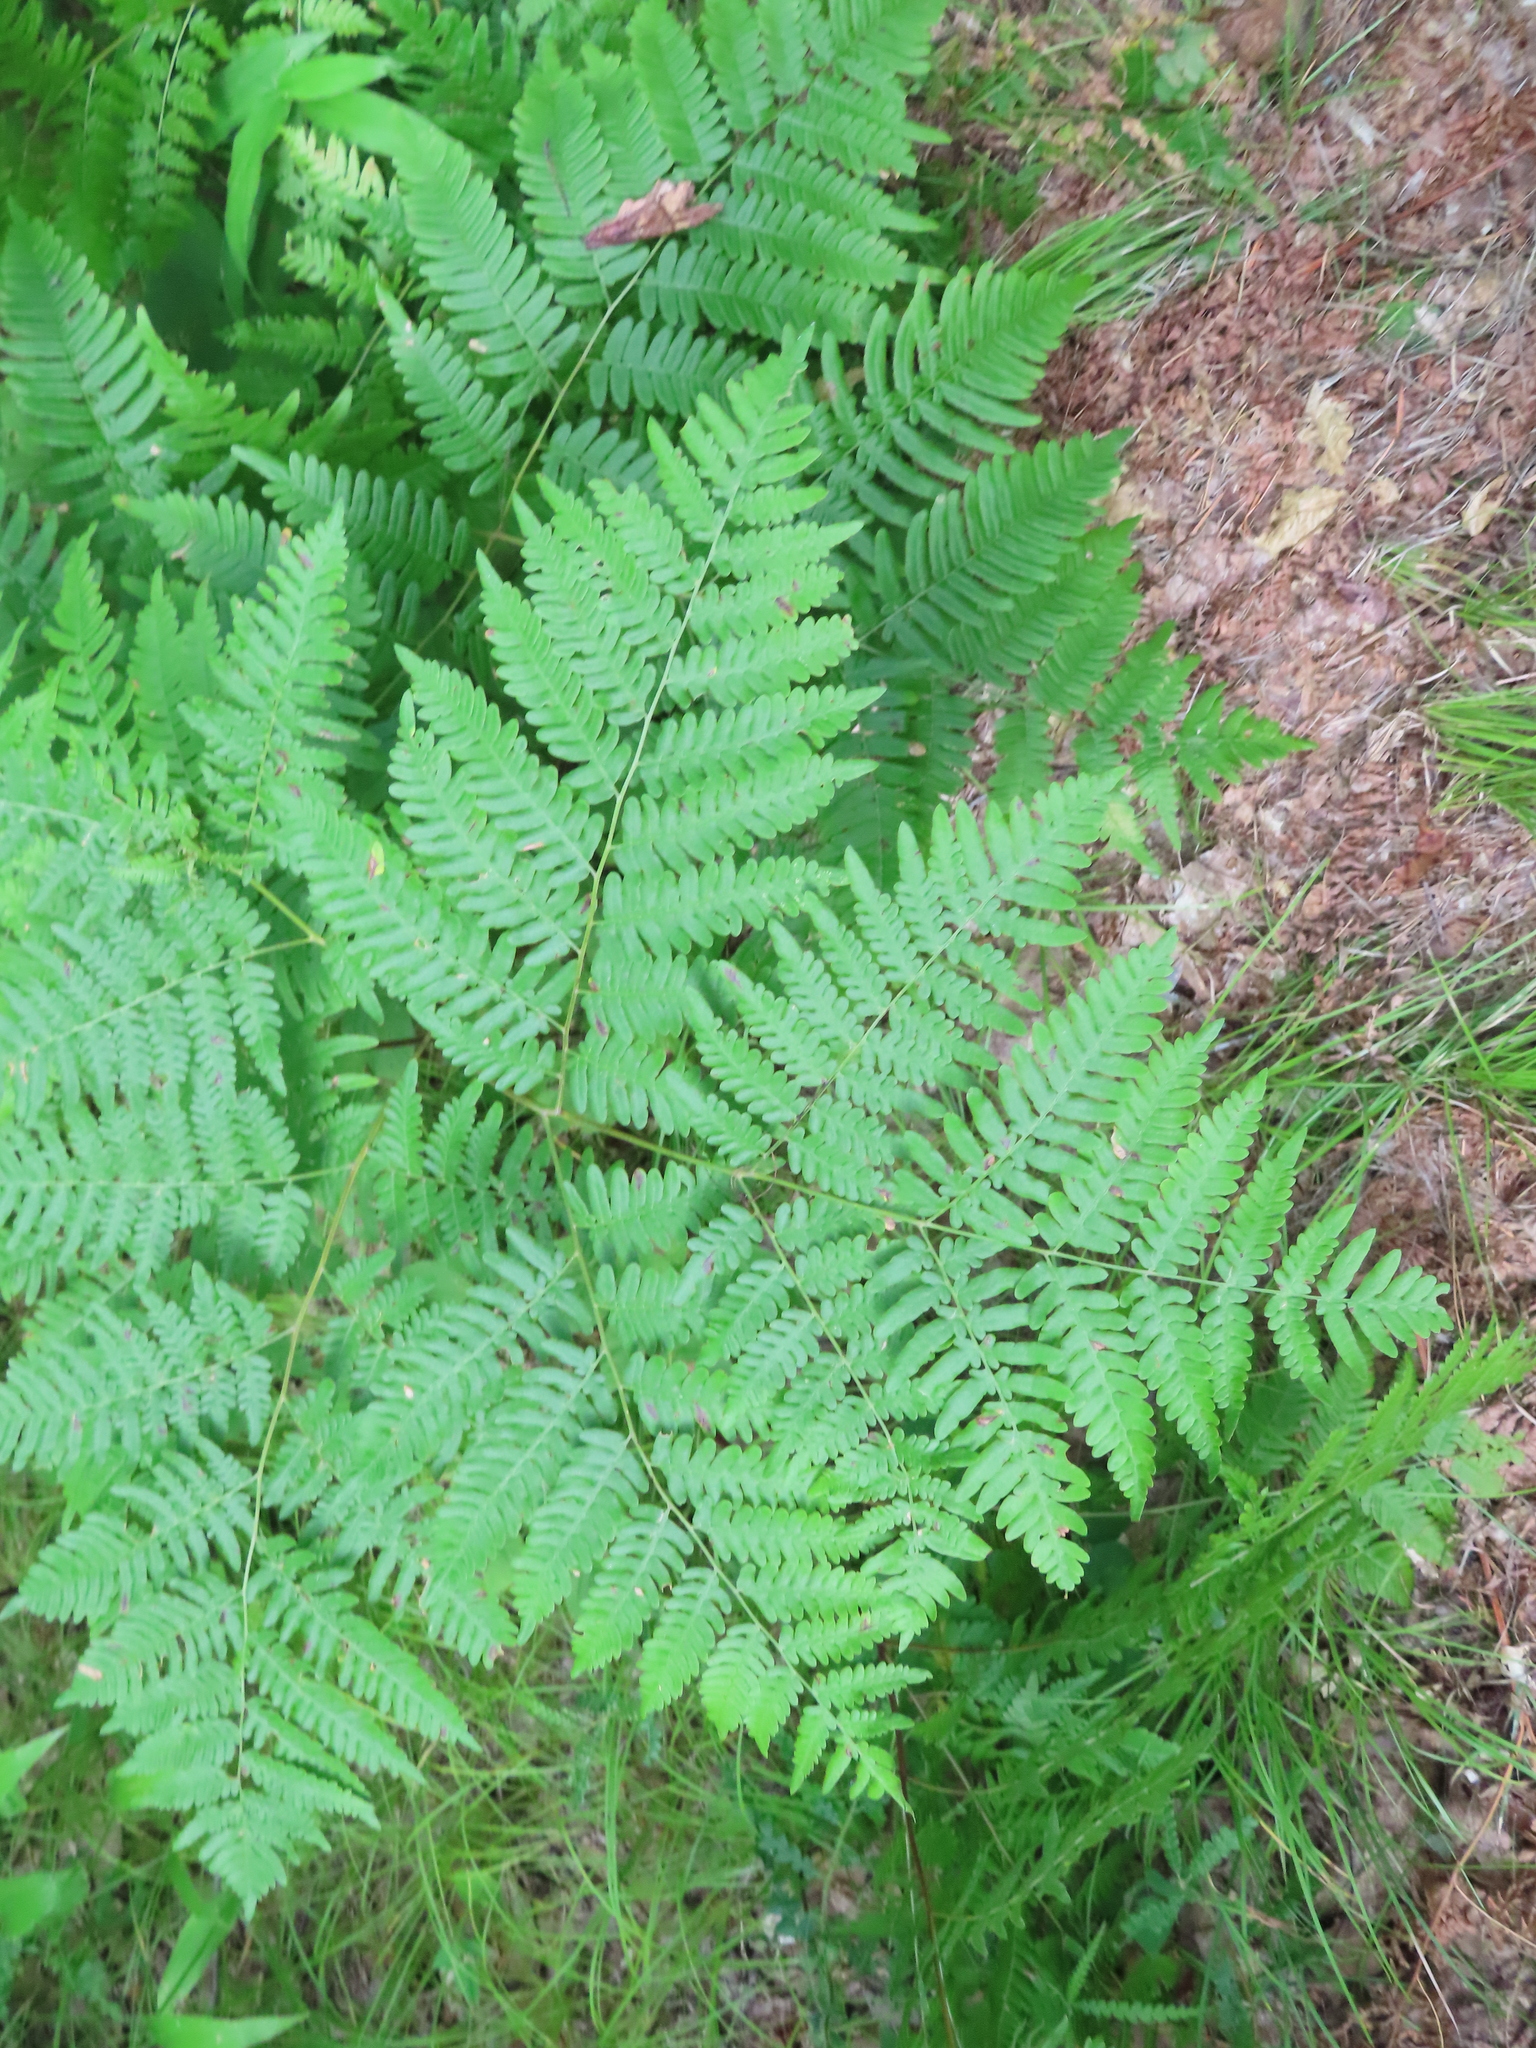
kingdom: Plantae
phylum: Tracheophyta
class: Polypodiopsida
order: Polypodiales
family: Dennstaedtiaceae
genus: Pteridium
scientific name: Pteridium aquilinum
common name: Bracken
